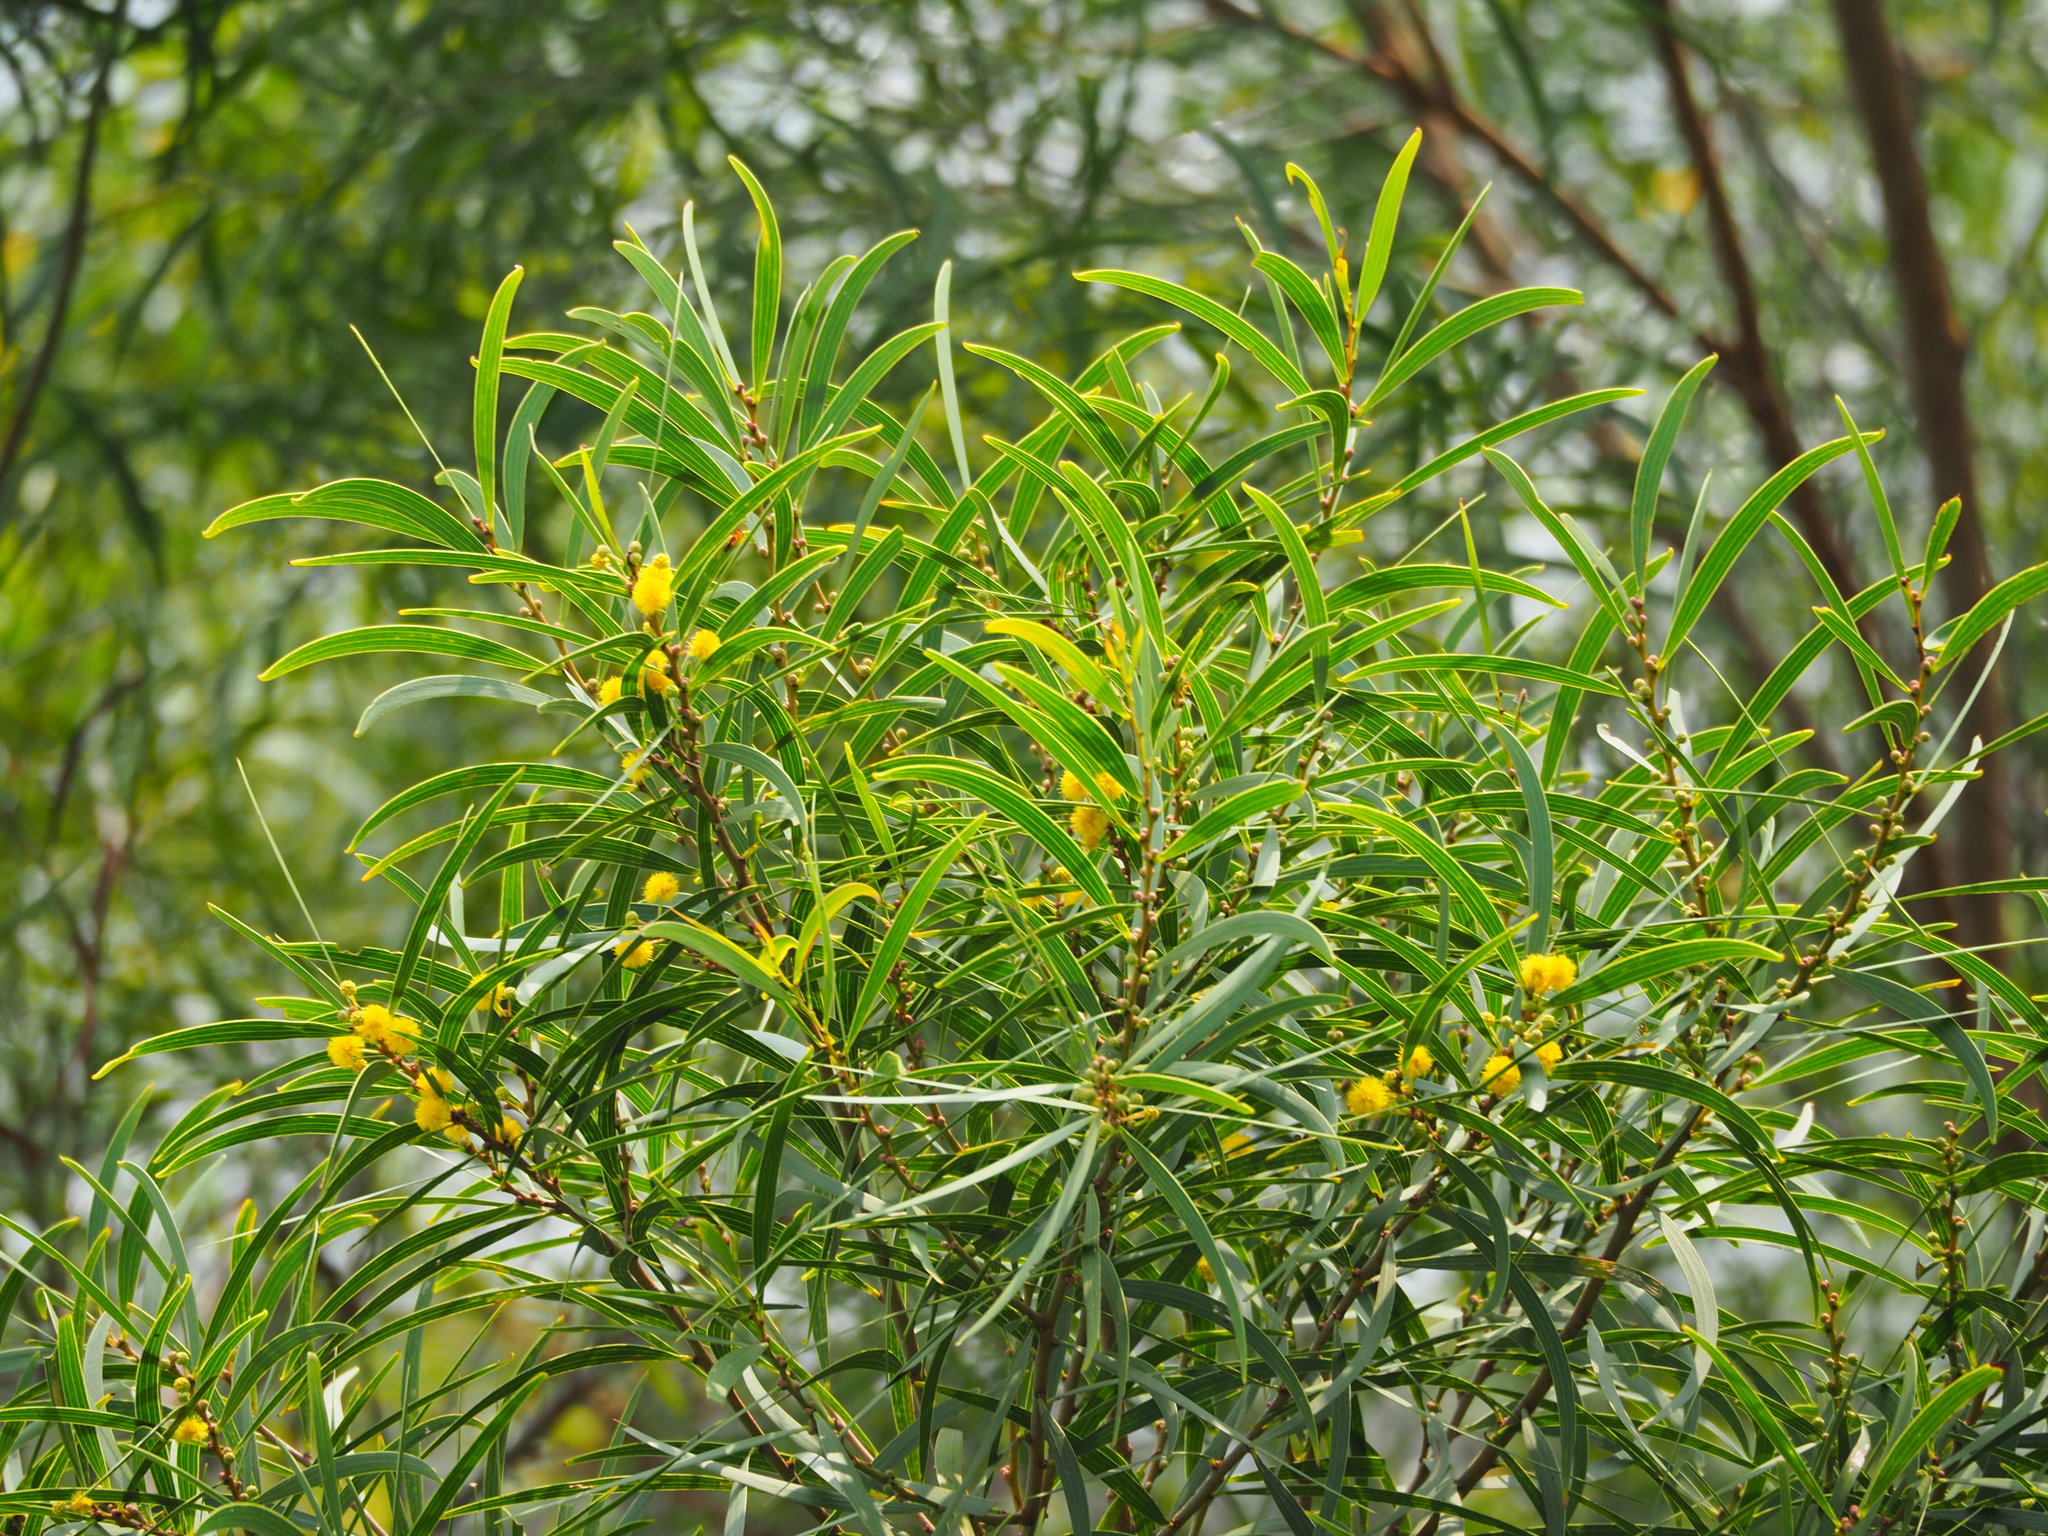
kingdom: Plantae
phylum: Tracheophyta
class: Magnoliopsida
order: Fabales
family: Fabaceae
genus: Acacia
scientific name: Acacia confusa
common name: Formosan koa
